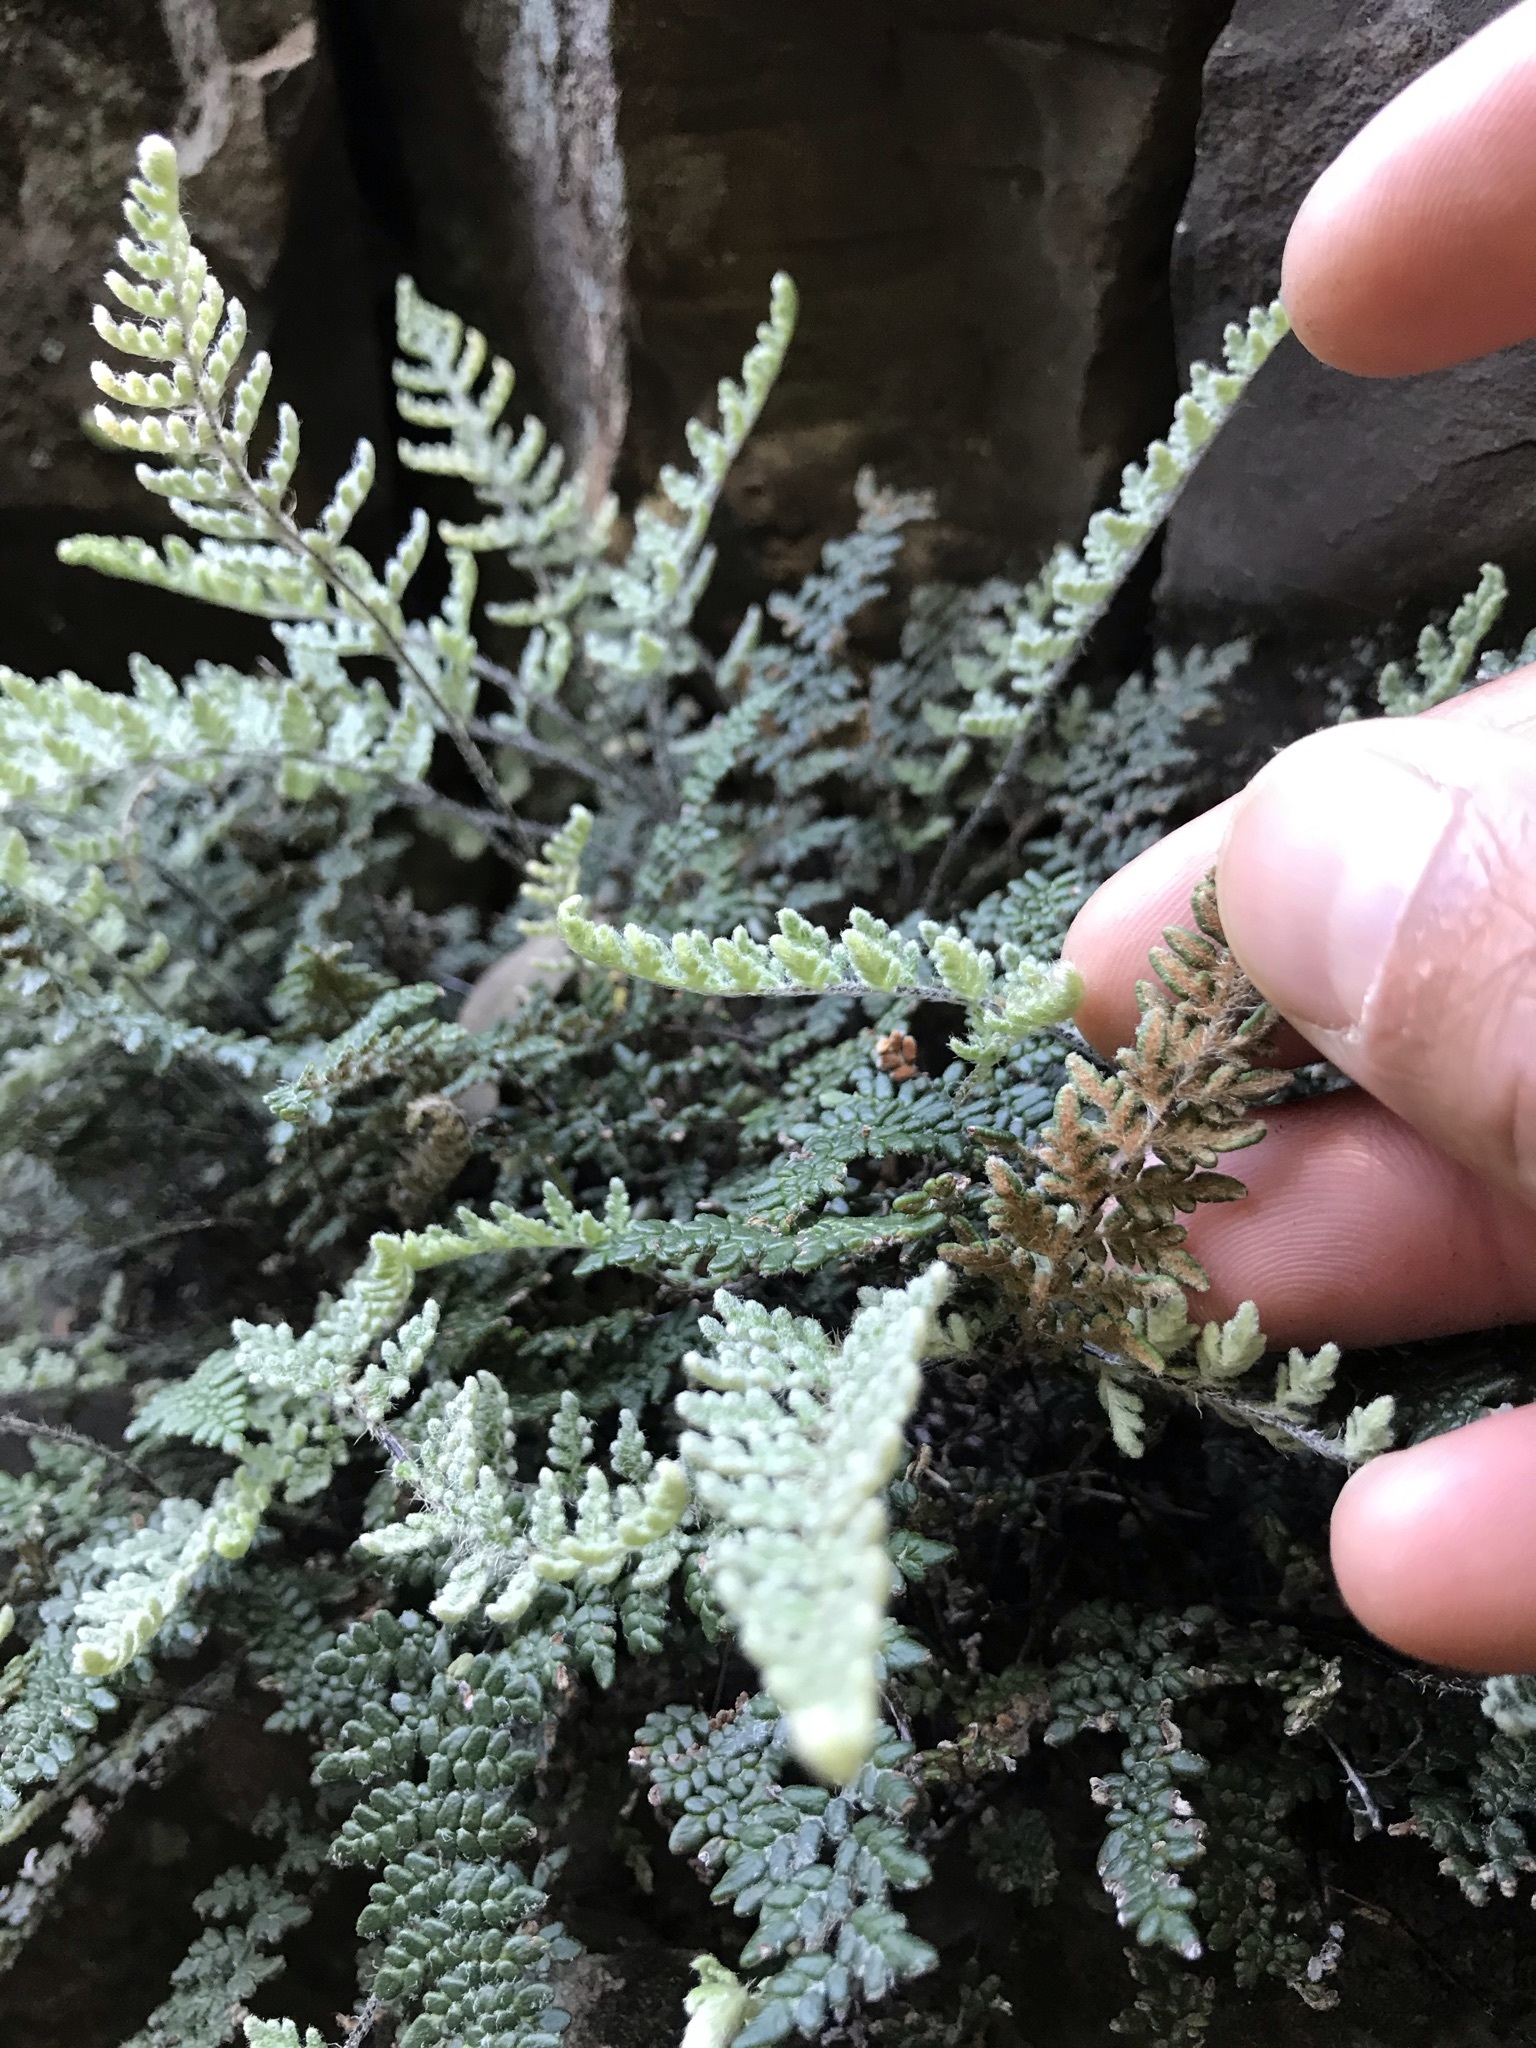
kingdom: Plantae
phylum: Tracheophyta
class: Polypodiopsida
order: Polypodiales
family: Pteridaceae
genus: Myriopteris
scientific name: Myriopteris gracillima
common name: Lace fern
